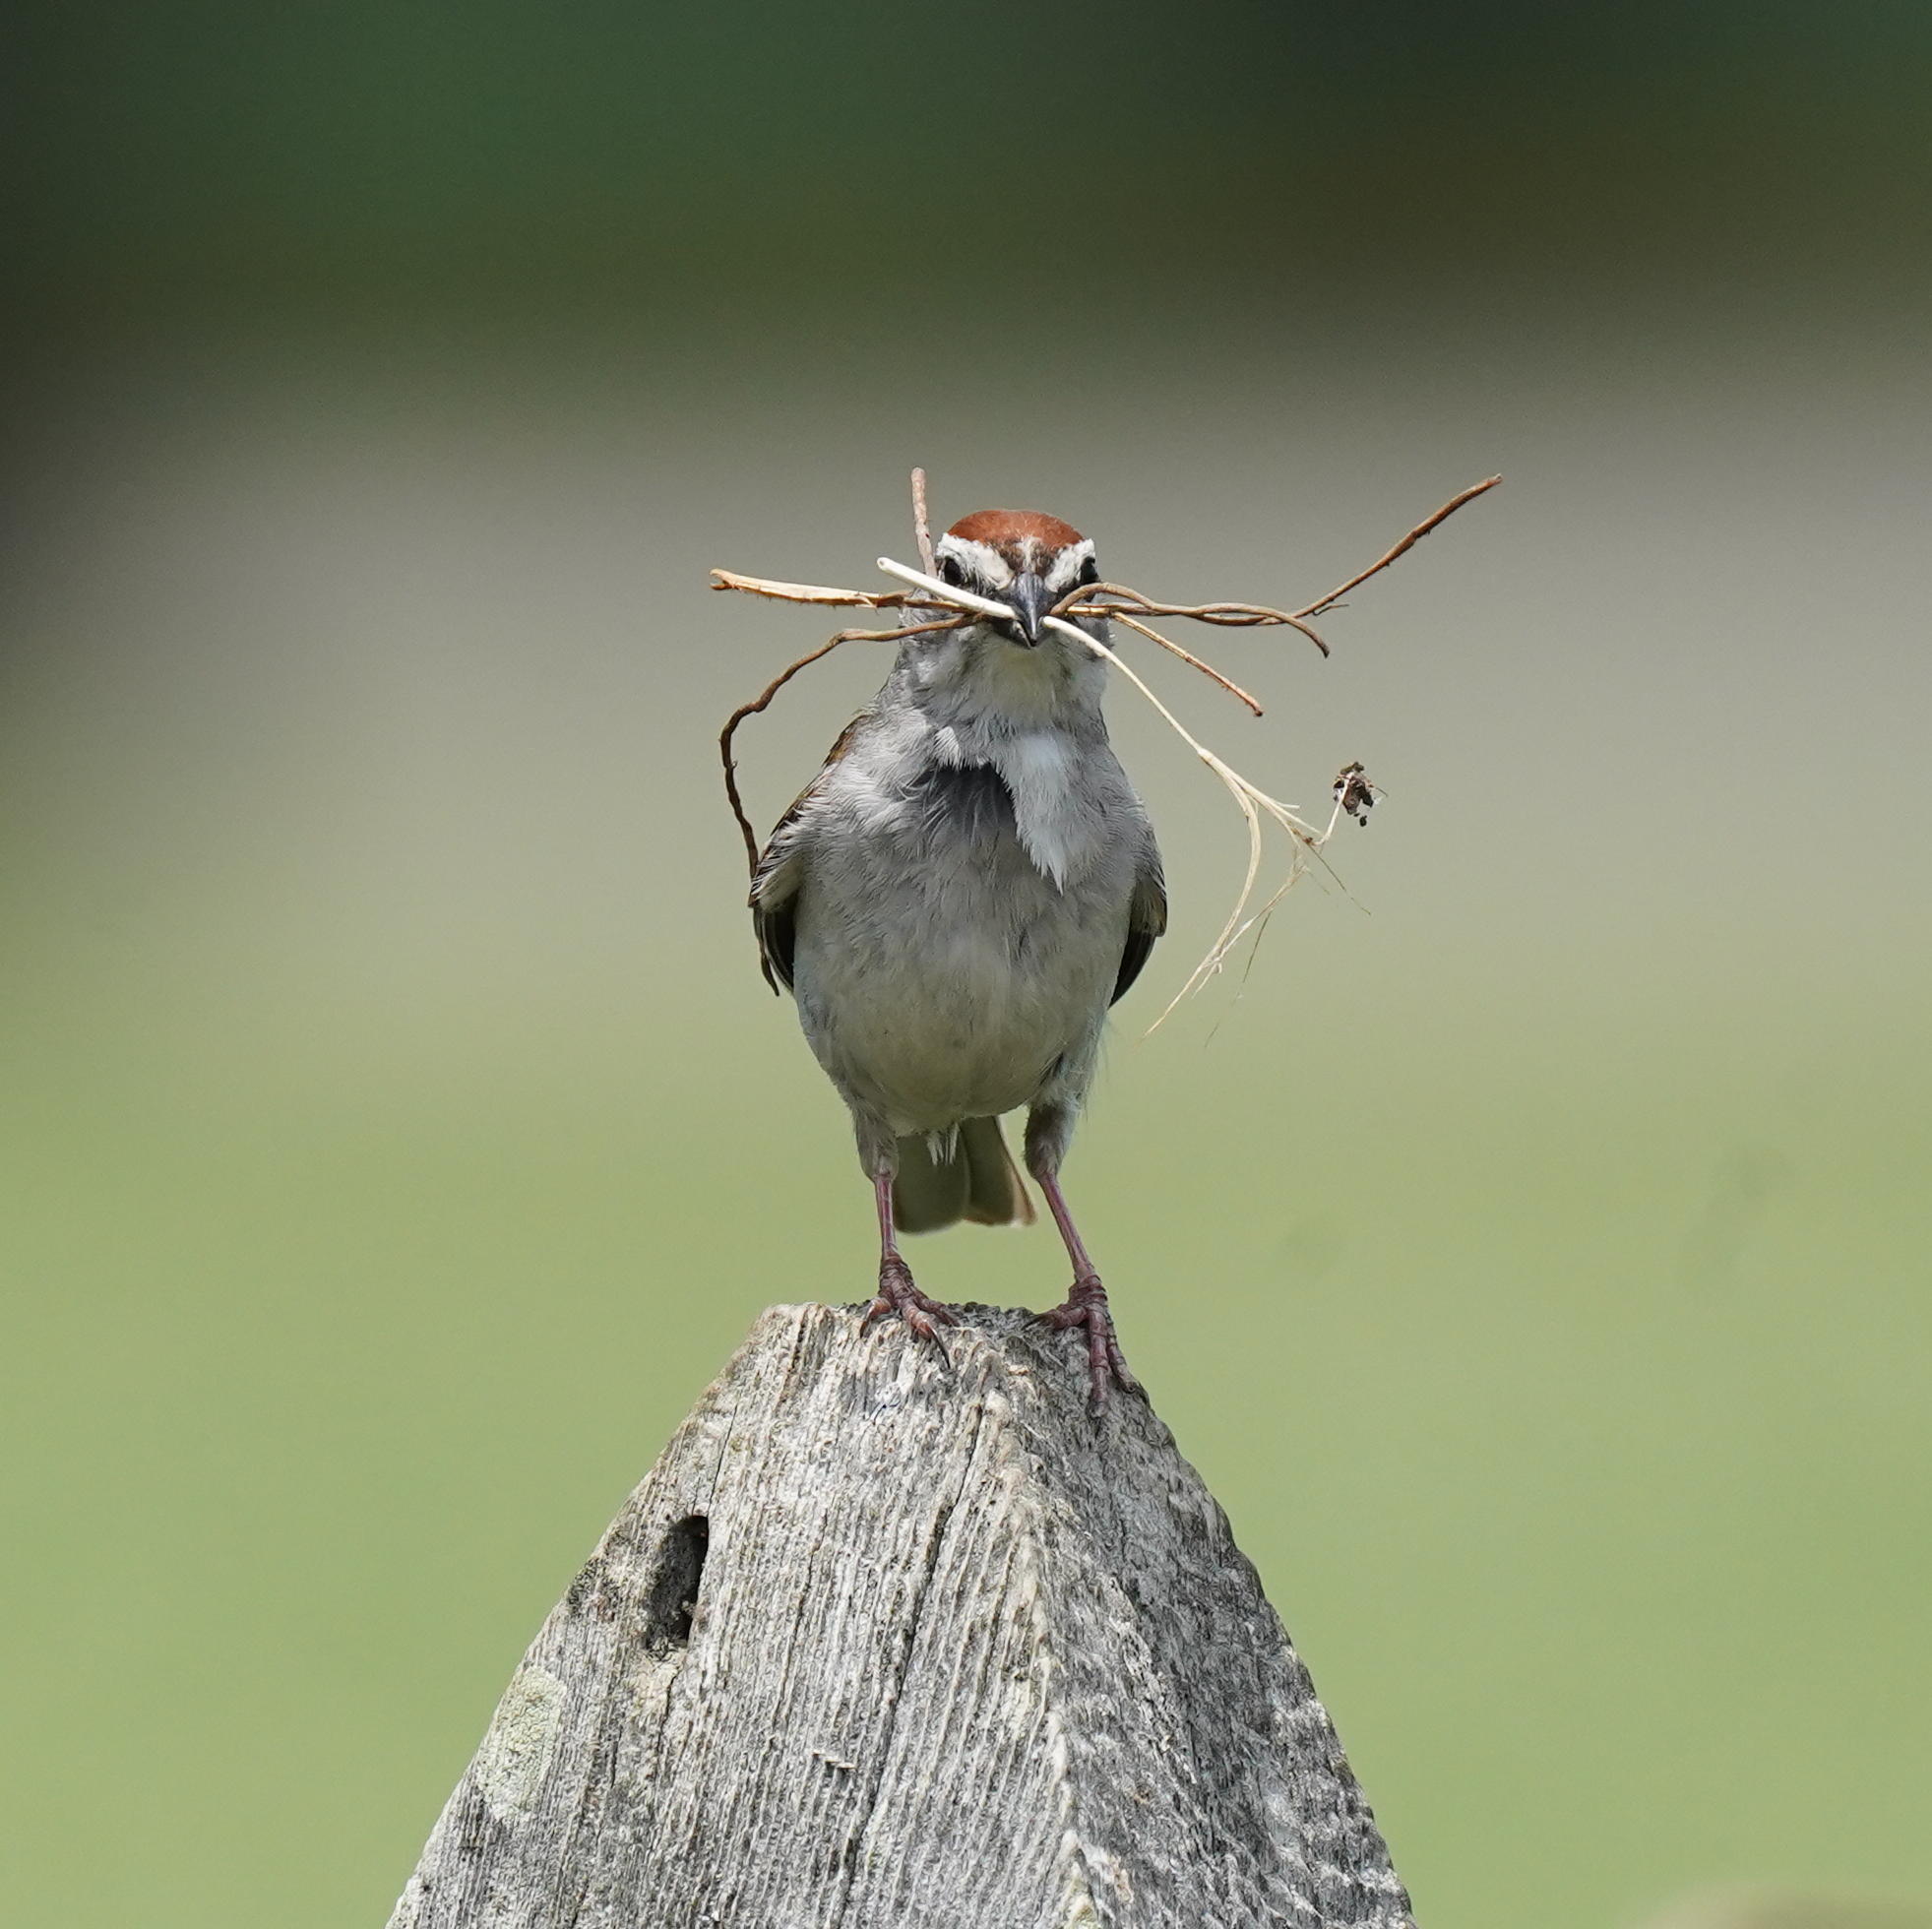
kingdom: Animalia
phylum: Chordata
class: Aves
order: Passeriformes
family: Passerellidae
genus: Spizella
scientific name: Spizella passerina
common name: Chipping sparrow
